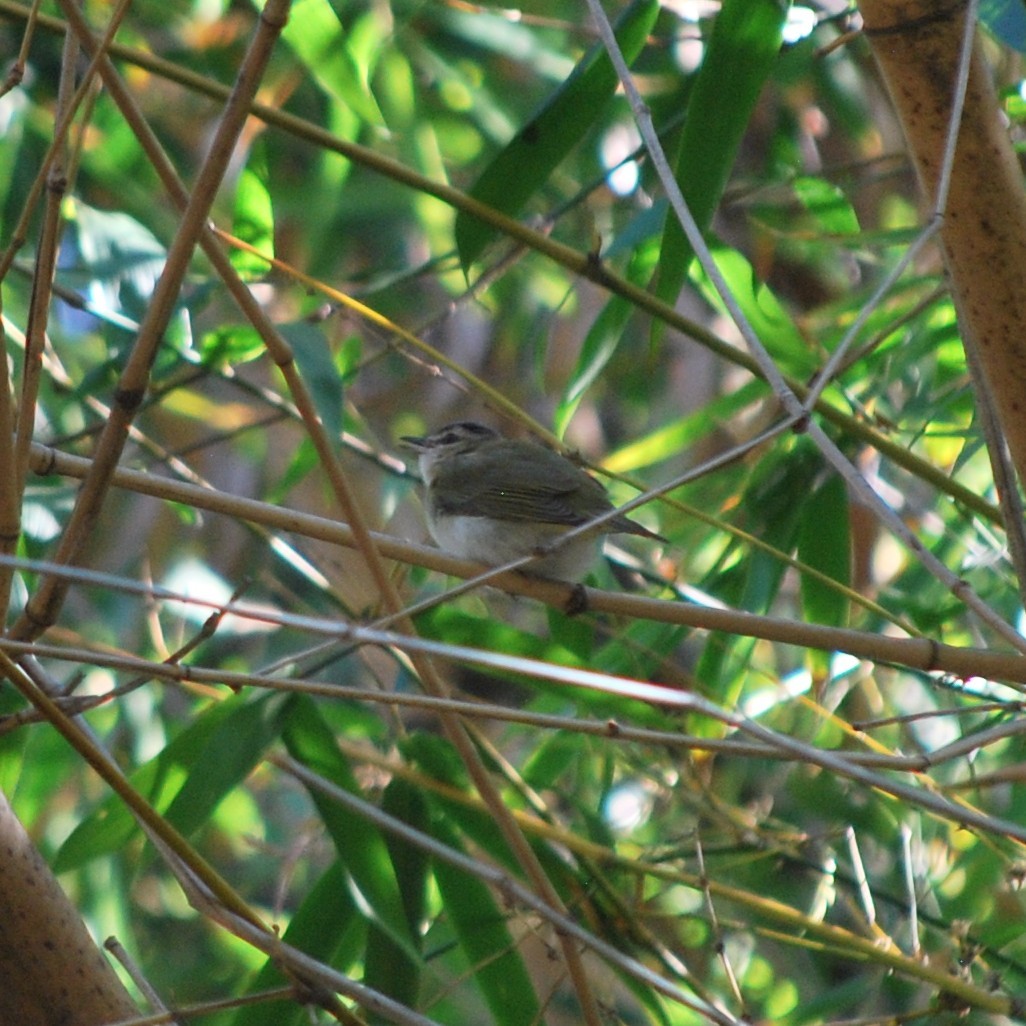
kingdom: Animalia
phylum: Chordata
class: Aves
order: Passeriformes
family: Vireonidae
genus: Vireo
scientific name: Vireo olivaceus
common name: Red-eyed vireo
